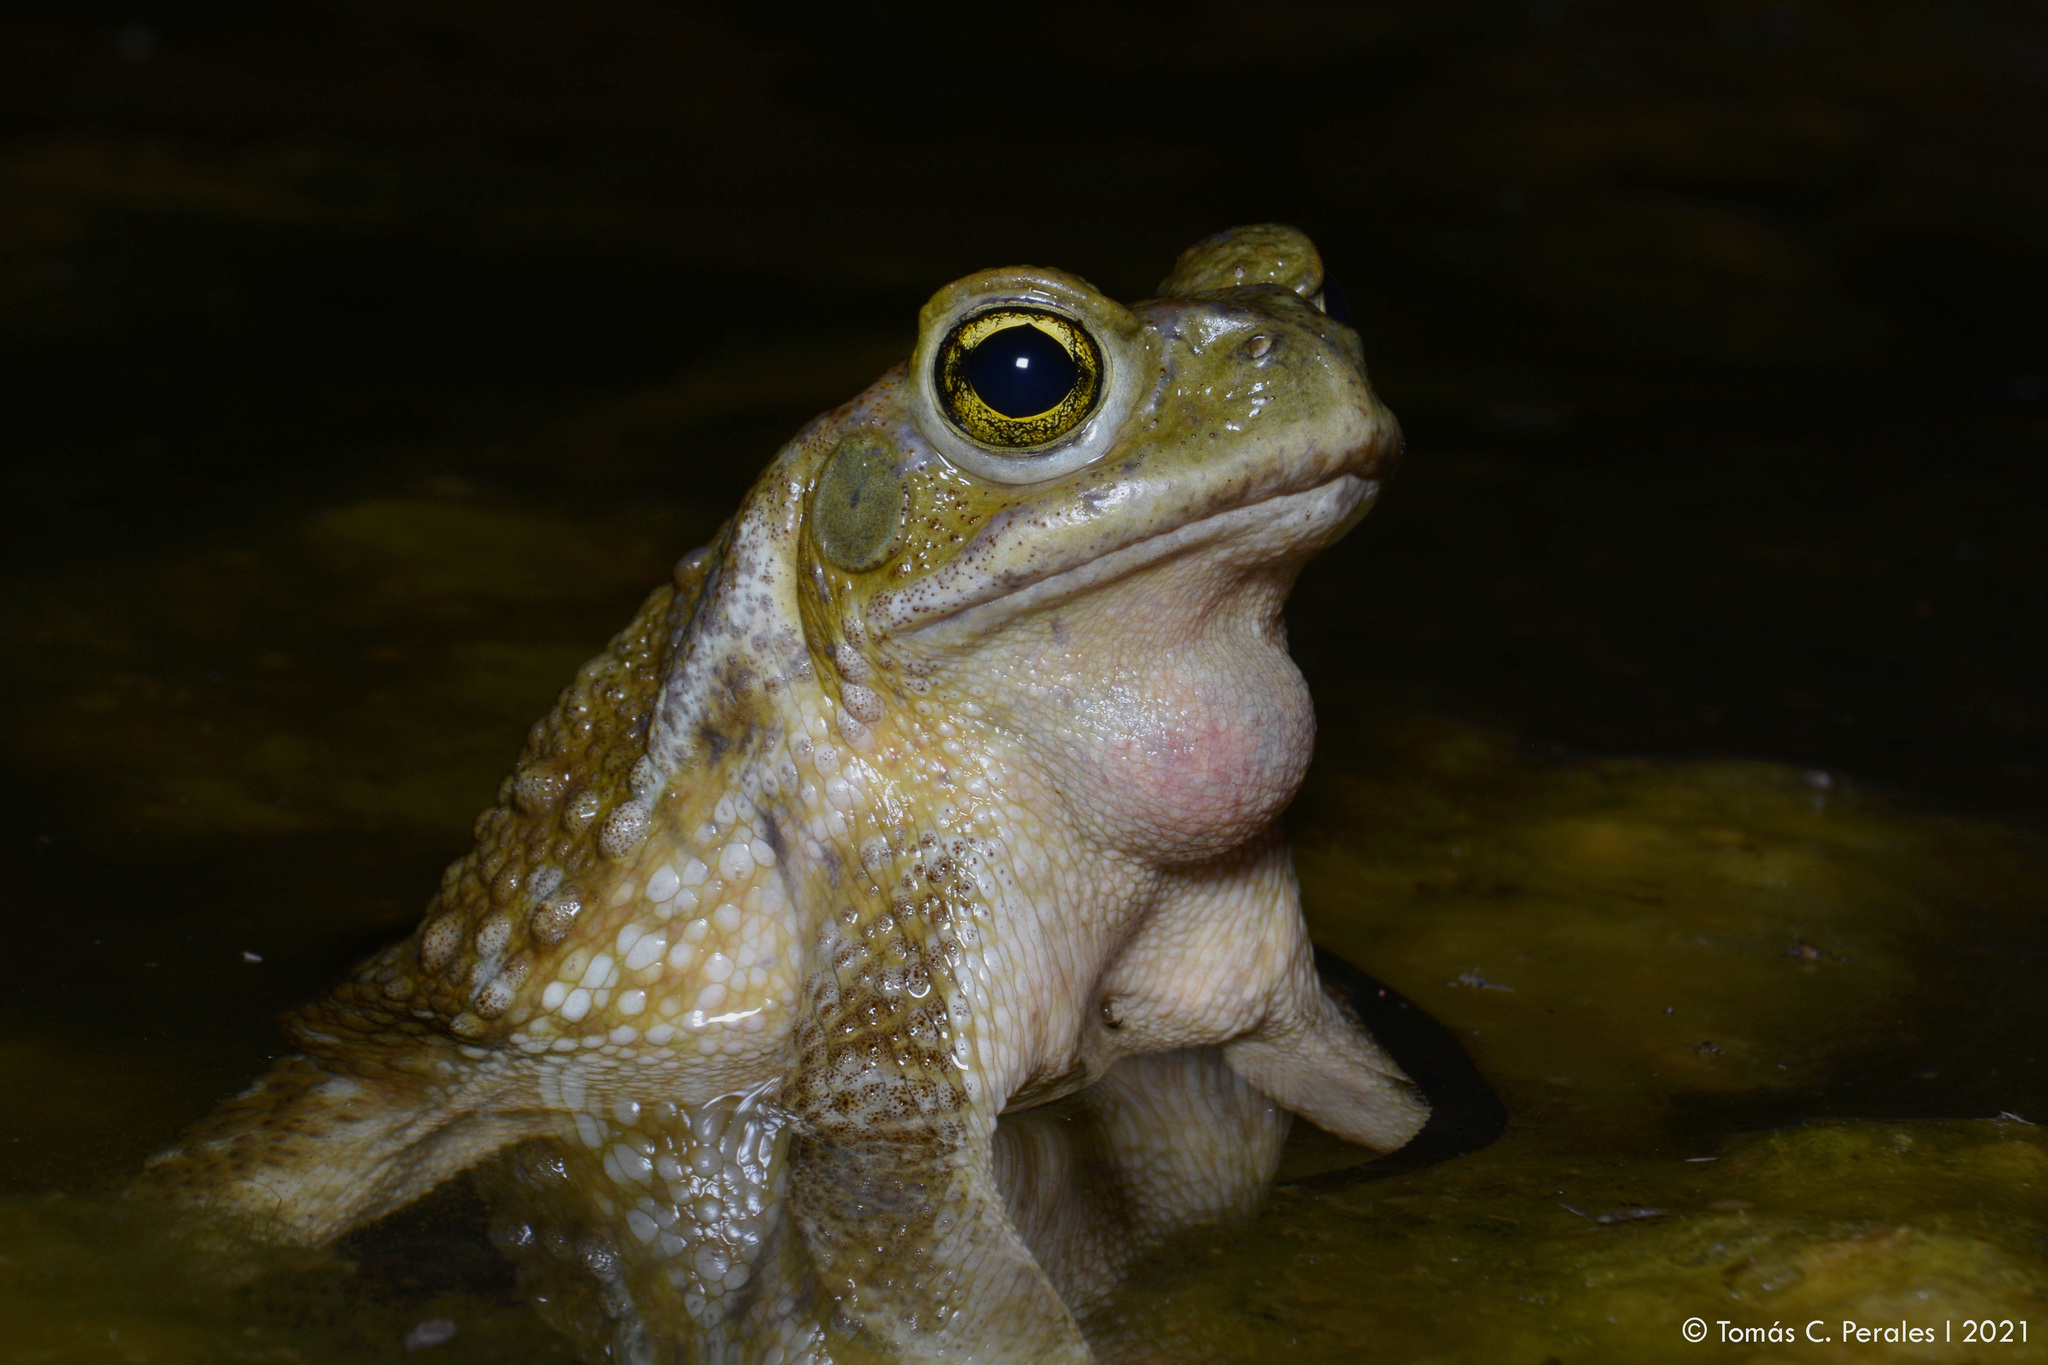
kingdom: Animalia
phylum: Chordata
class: Amphibia
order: Anura
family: Bufonidae
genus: Rhinella
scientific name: Rhinella arenarum
